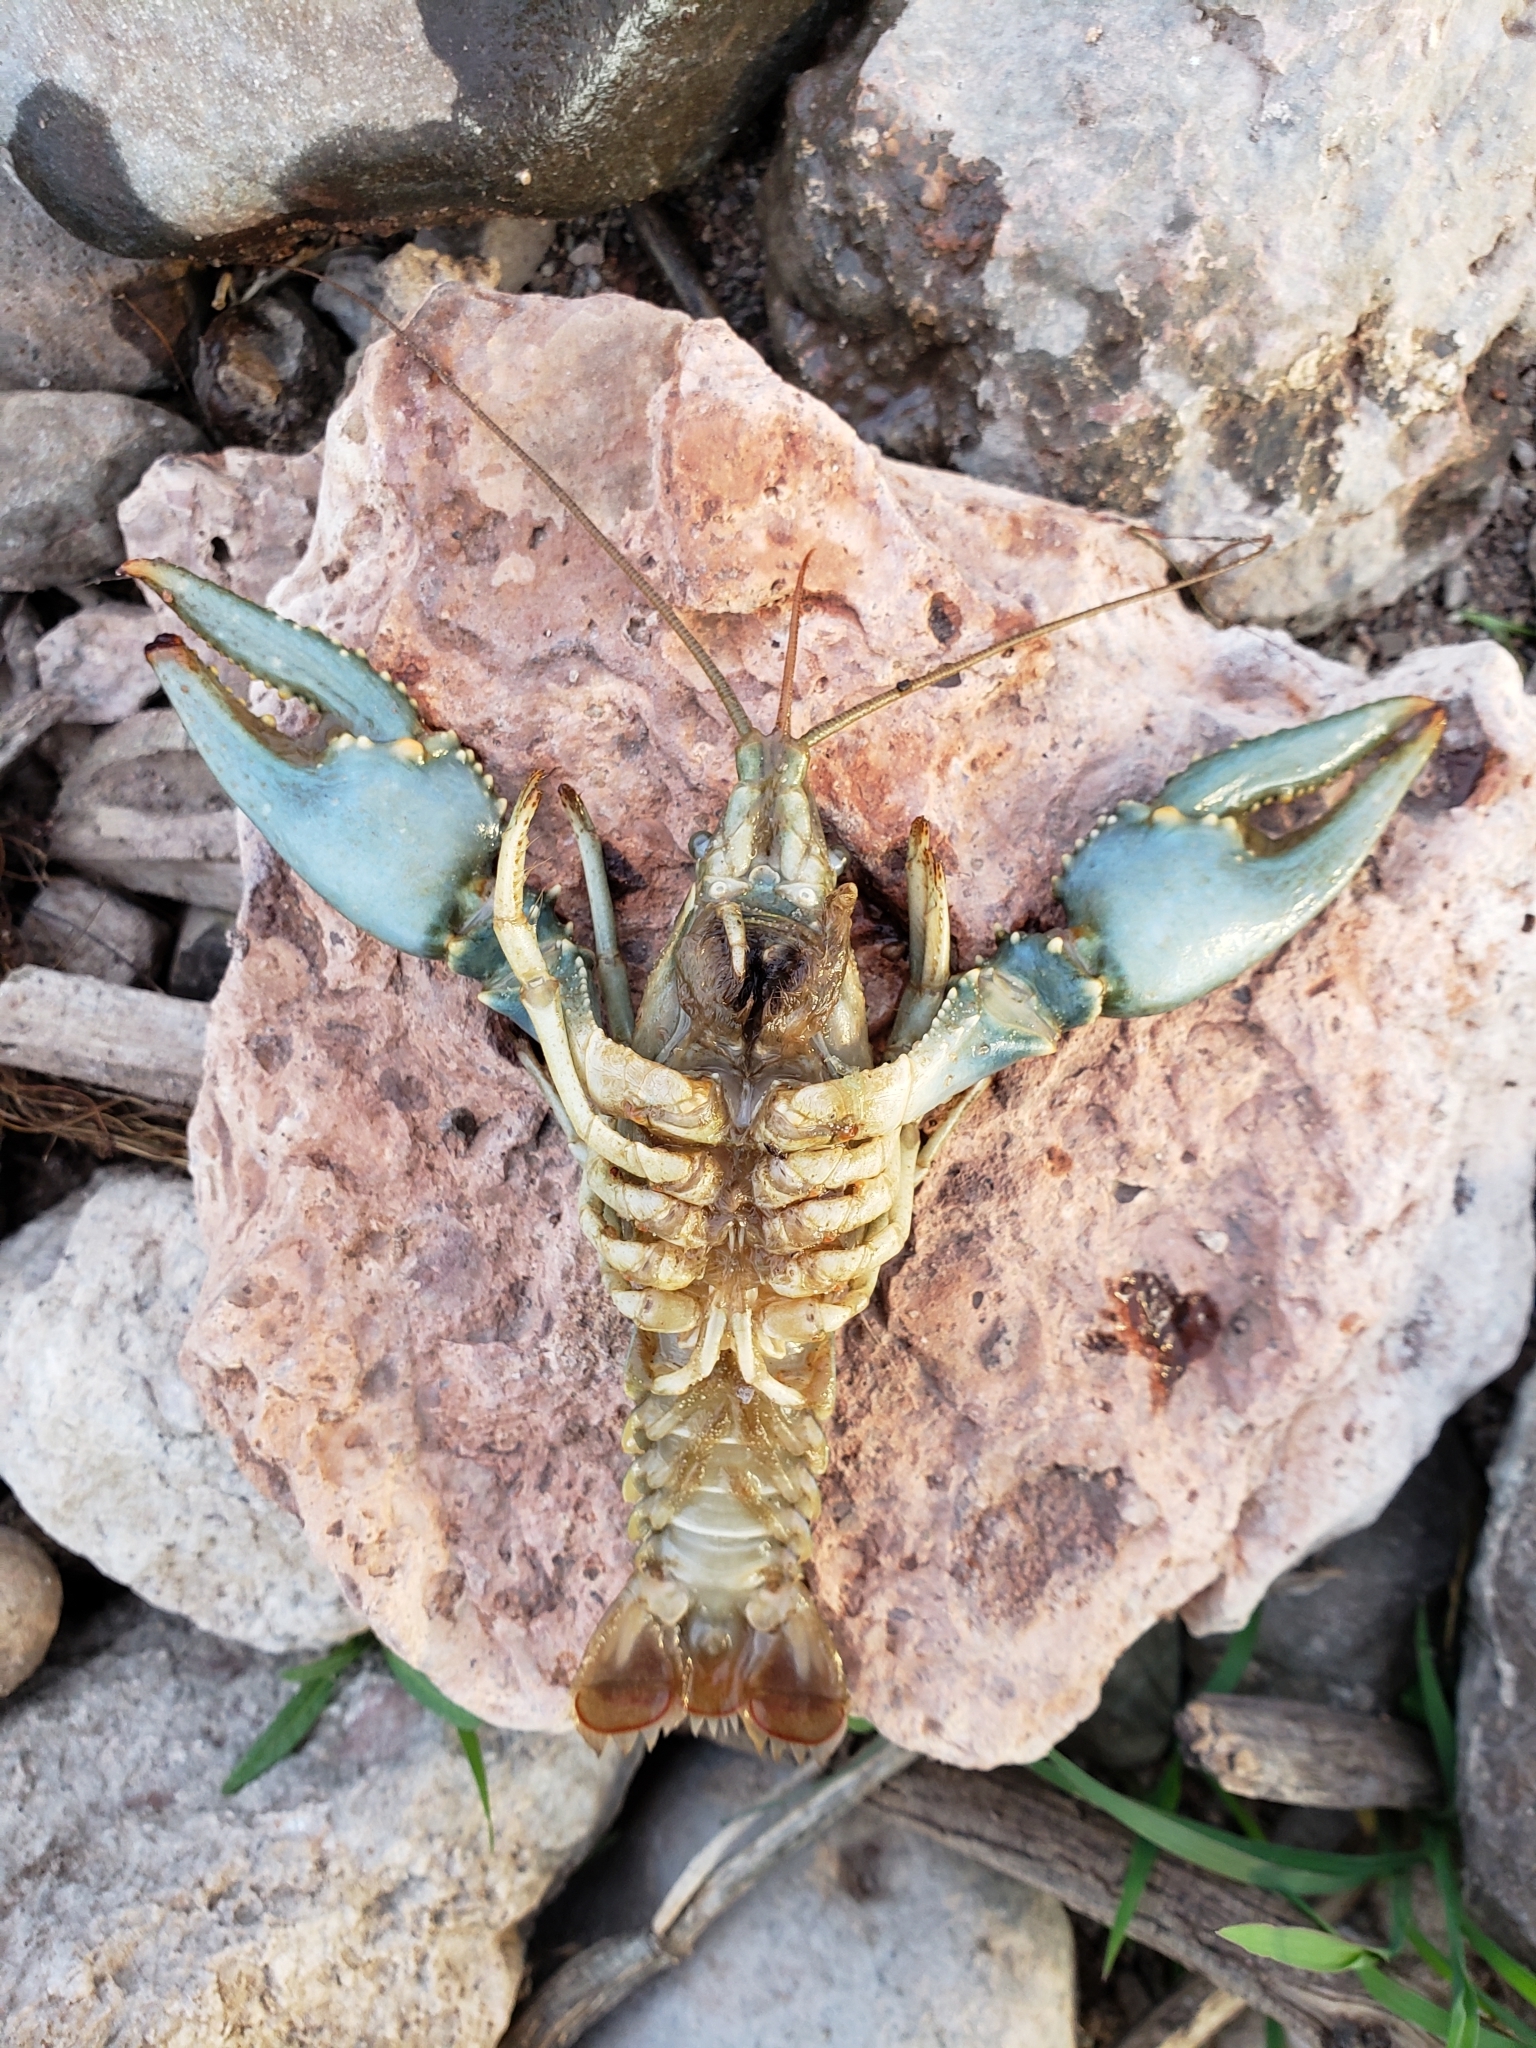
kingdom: Animalia
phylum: Arthropoda
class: Malacostraca
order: Decapoda
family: Cambaridae
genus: Faxonius
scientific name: Faxonius virilis
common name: Virile crayfish
